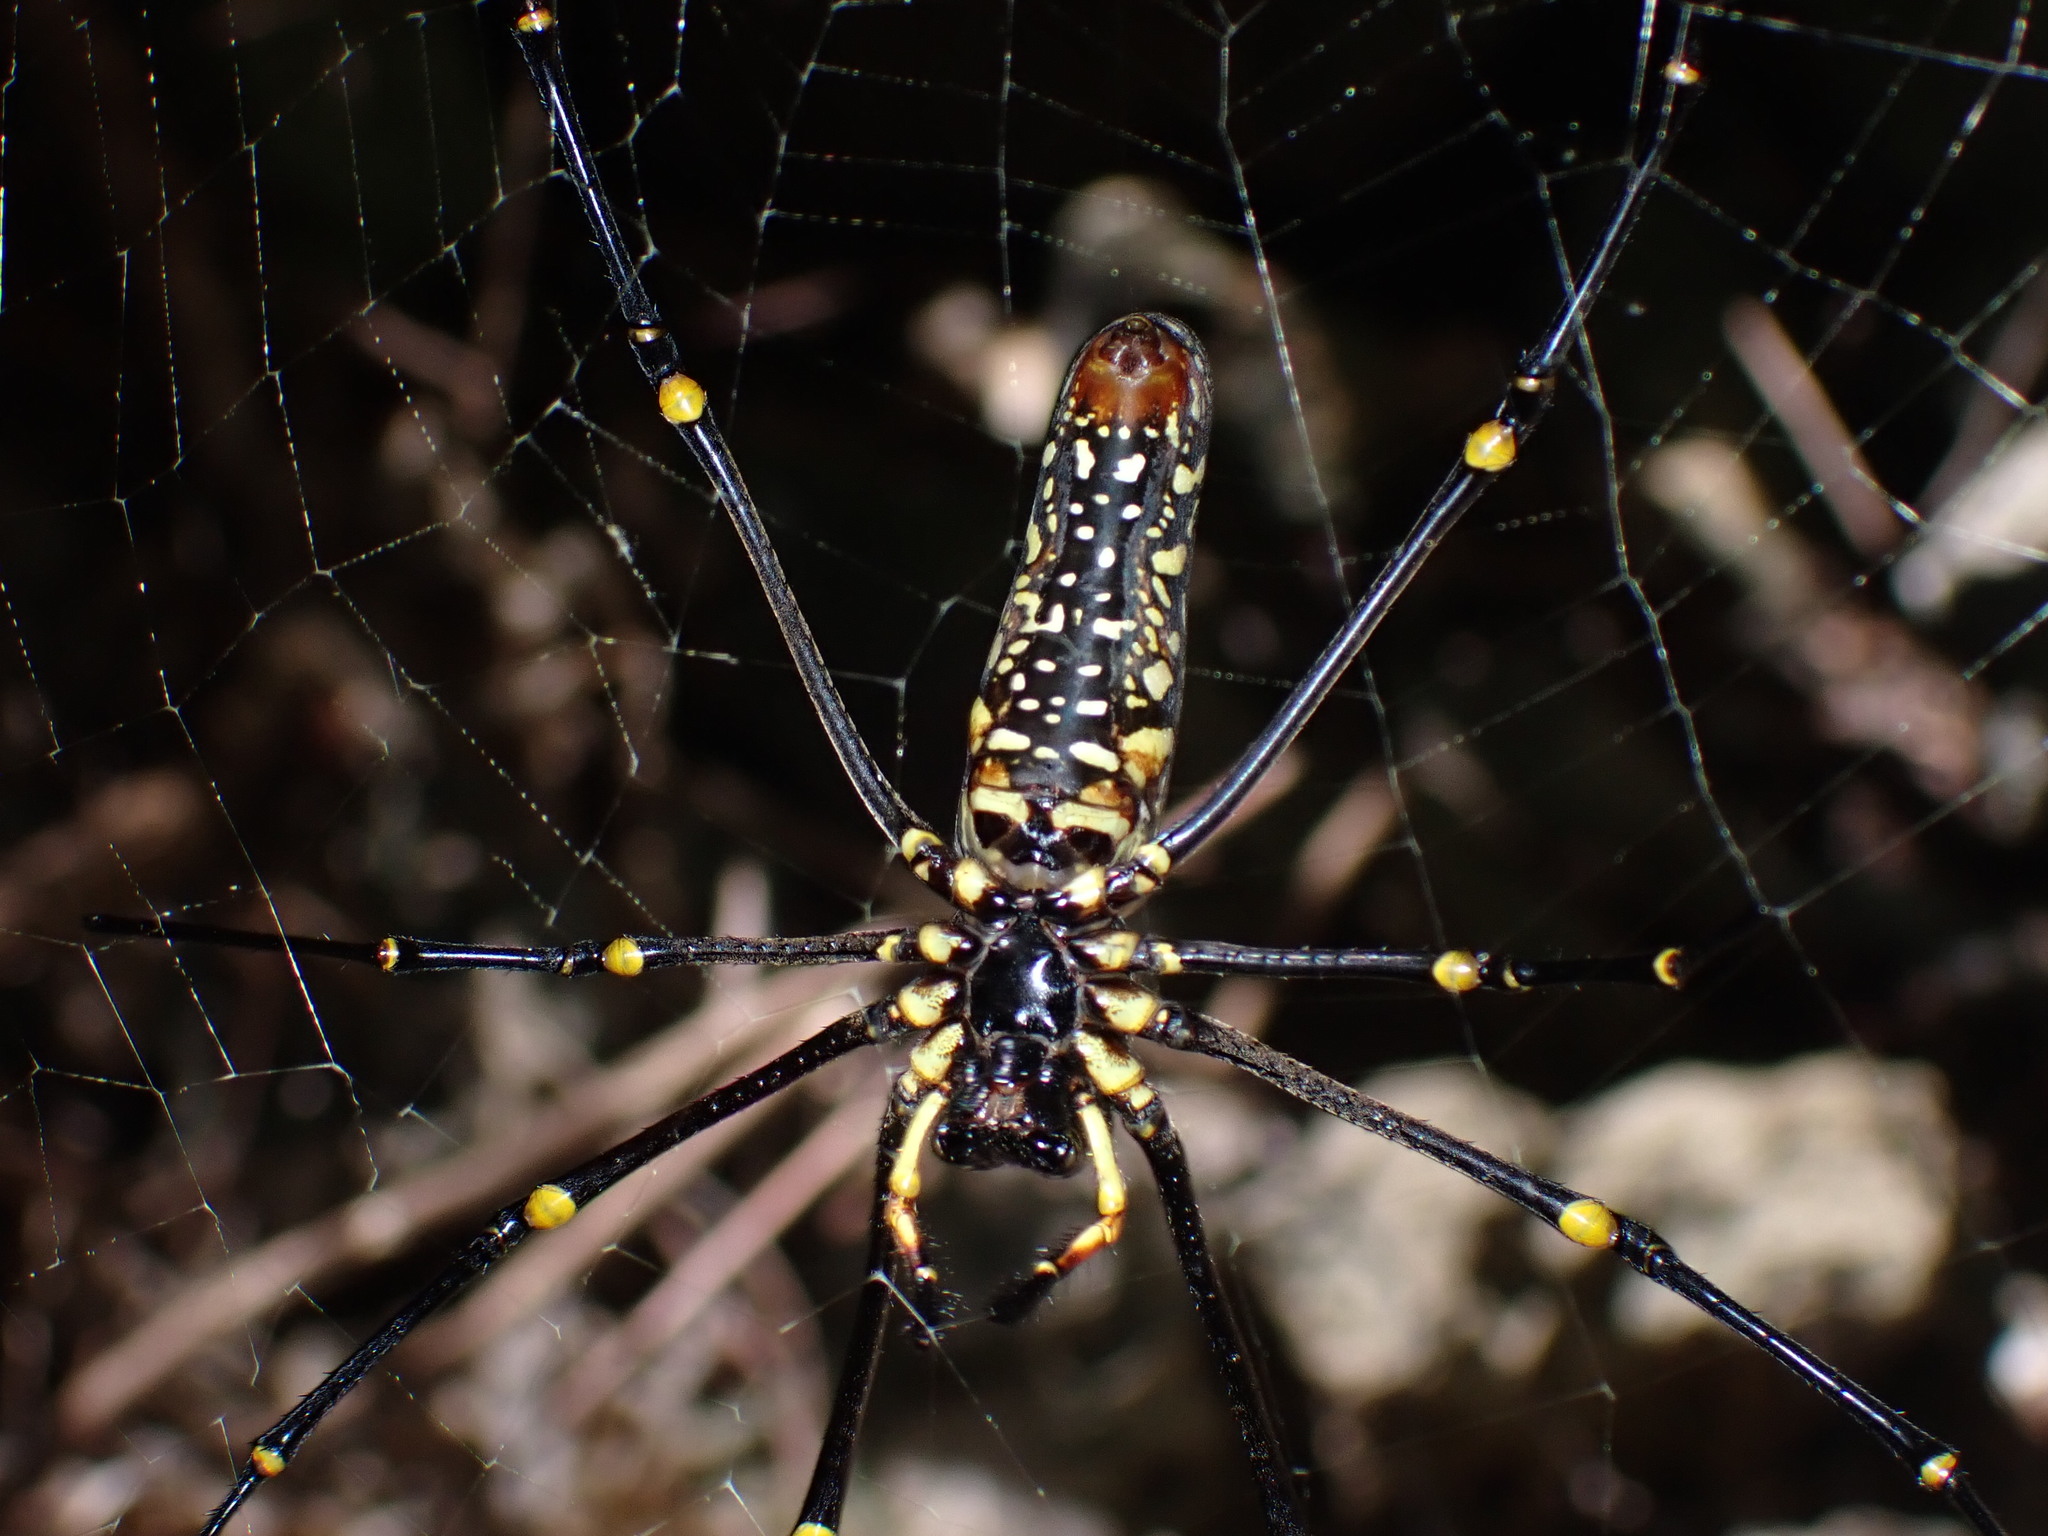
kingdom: Animalia
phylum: Arthropoda
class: Arachnida
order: Araneae
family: Araneidae
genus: Nephila
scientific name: Nephila pilipes
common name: Giant golden orb weaver
